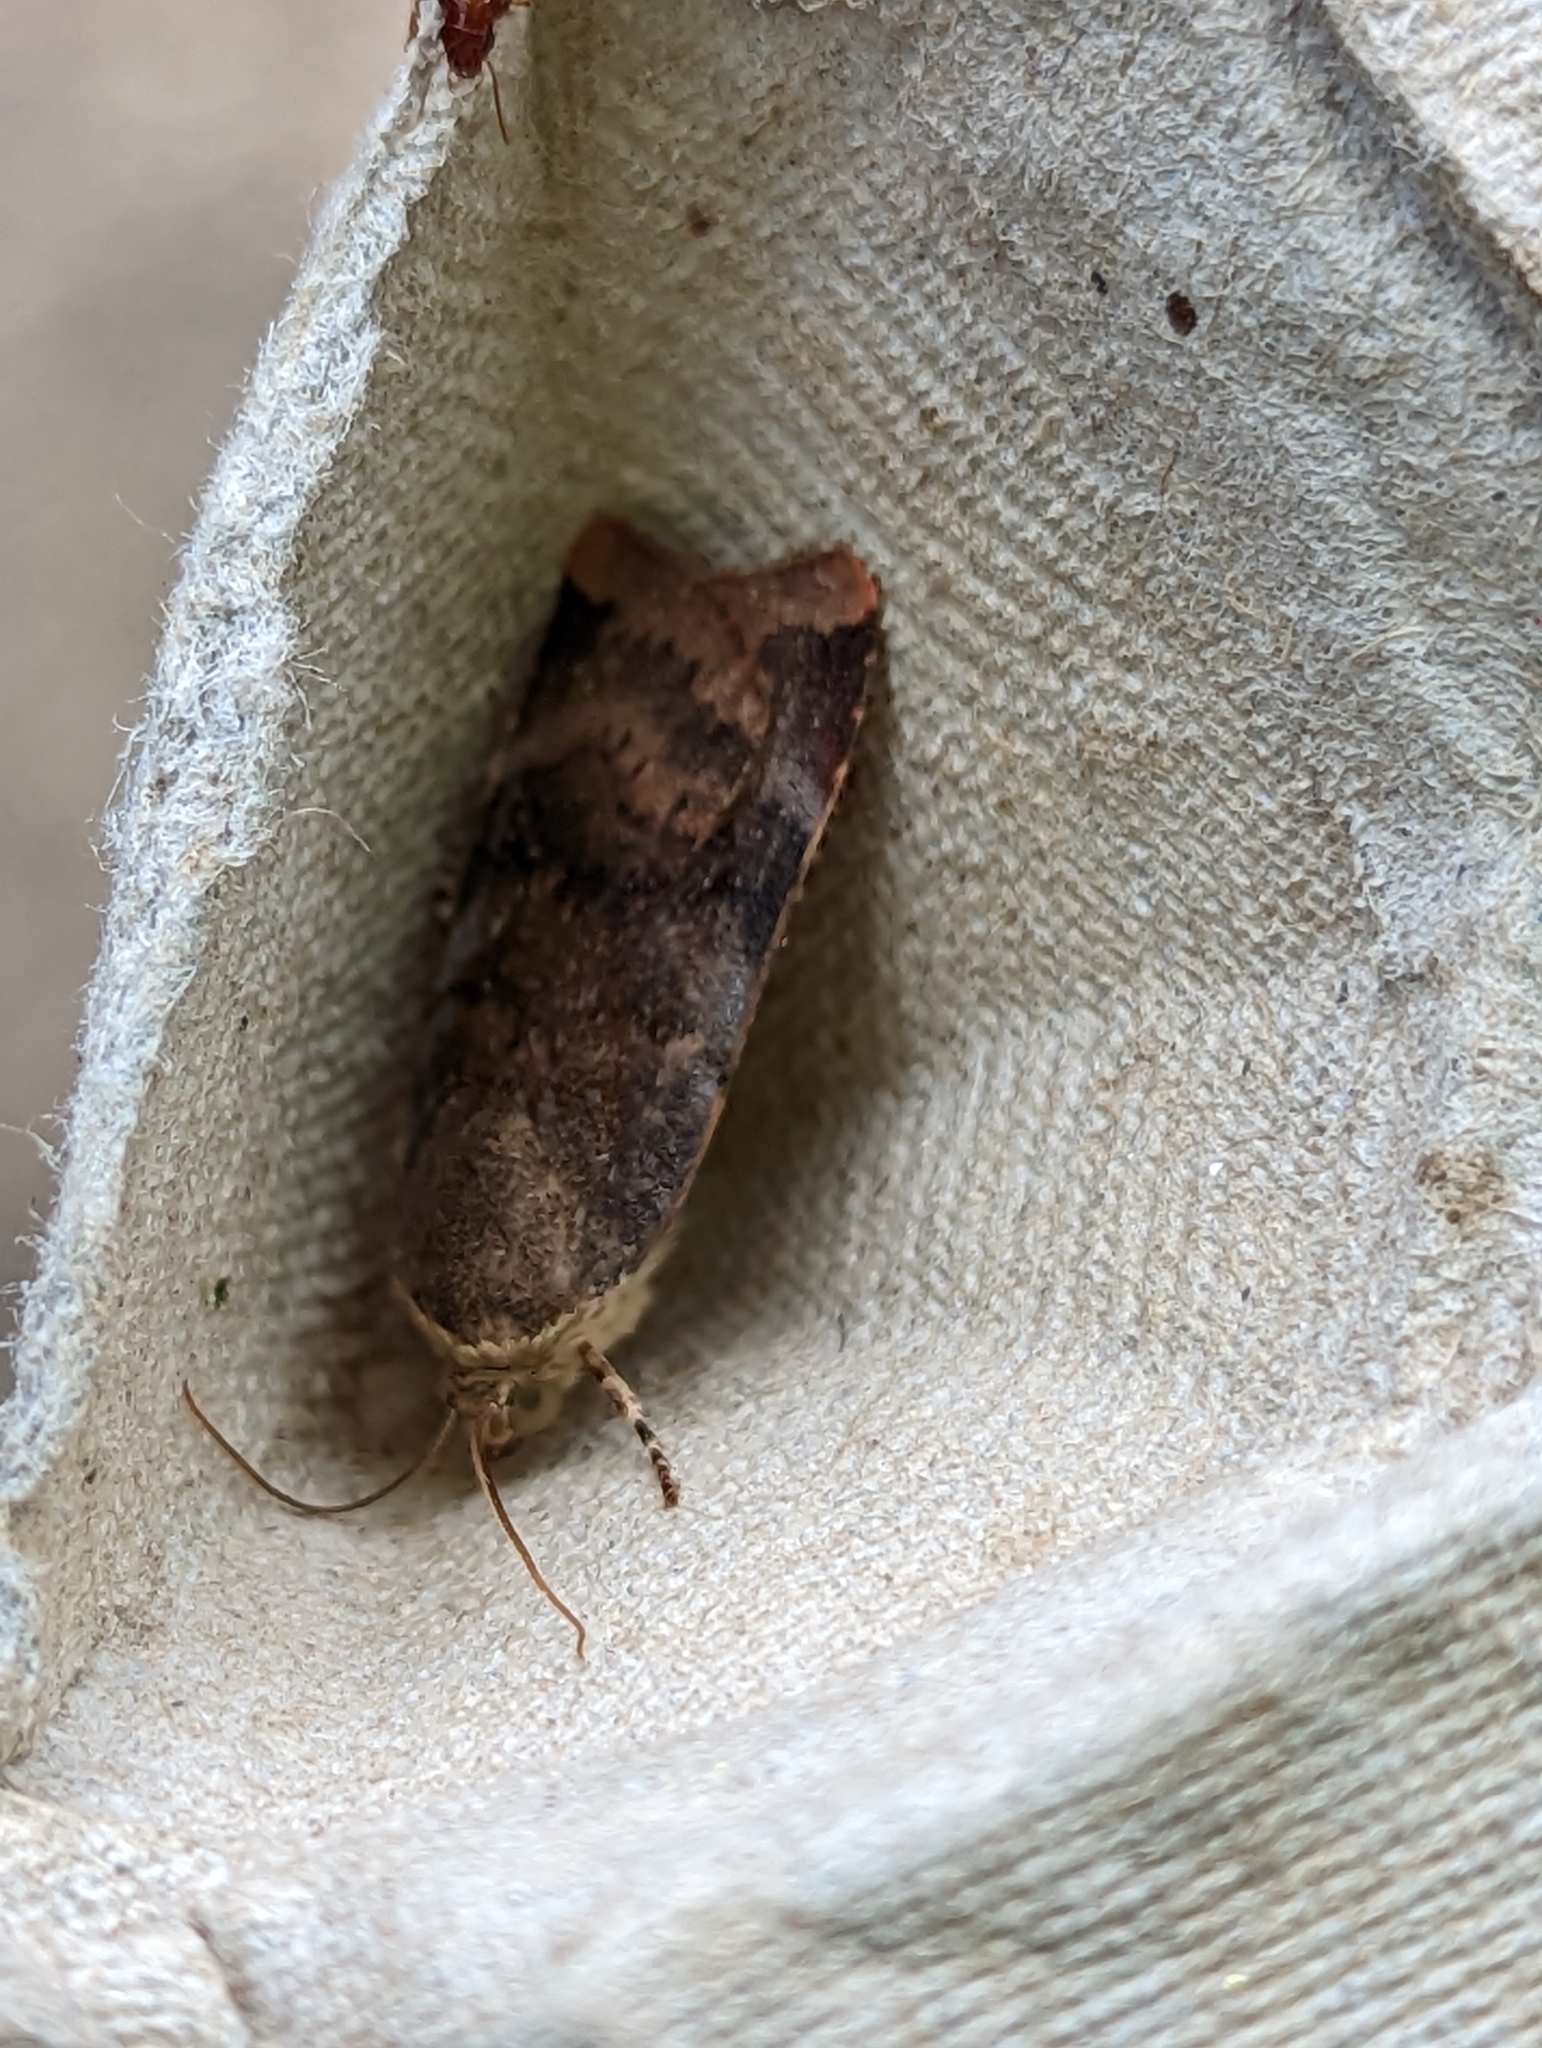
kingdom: Animalia
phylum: Arthropoda
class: Insecta
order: Lepidoptera
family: Noctuidae
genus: Noctua
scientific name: Noctua janthe
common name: Lesser broad-bordered yellow underwing
